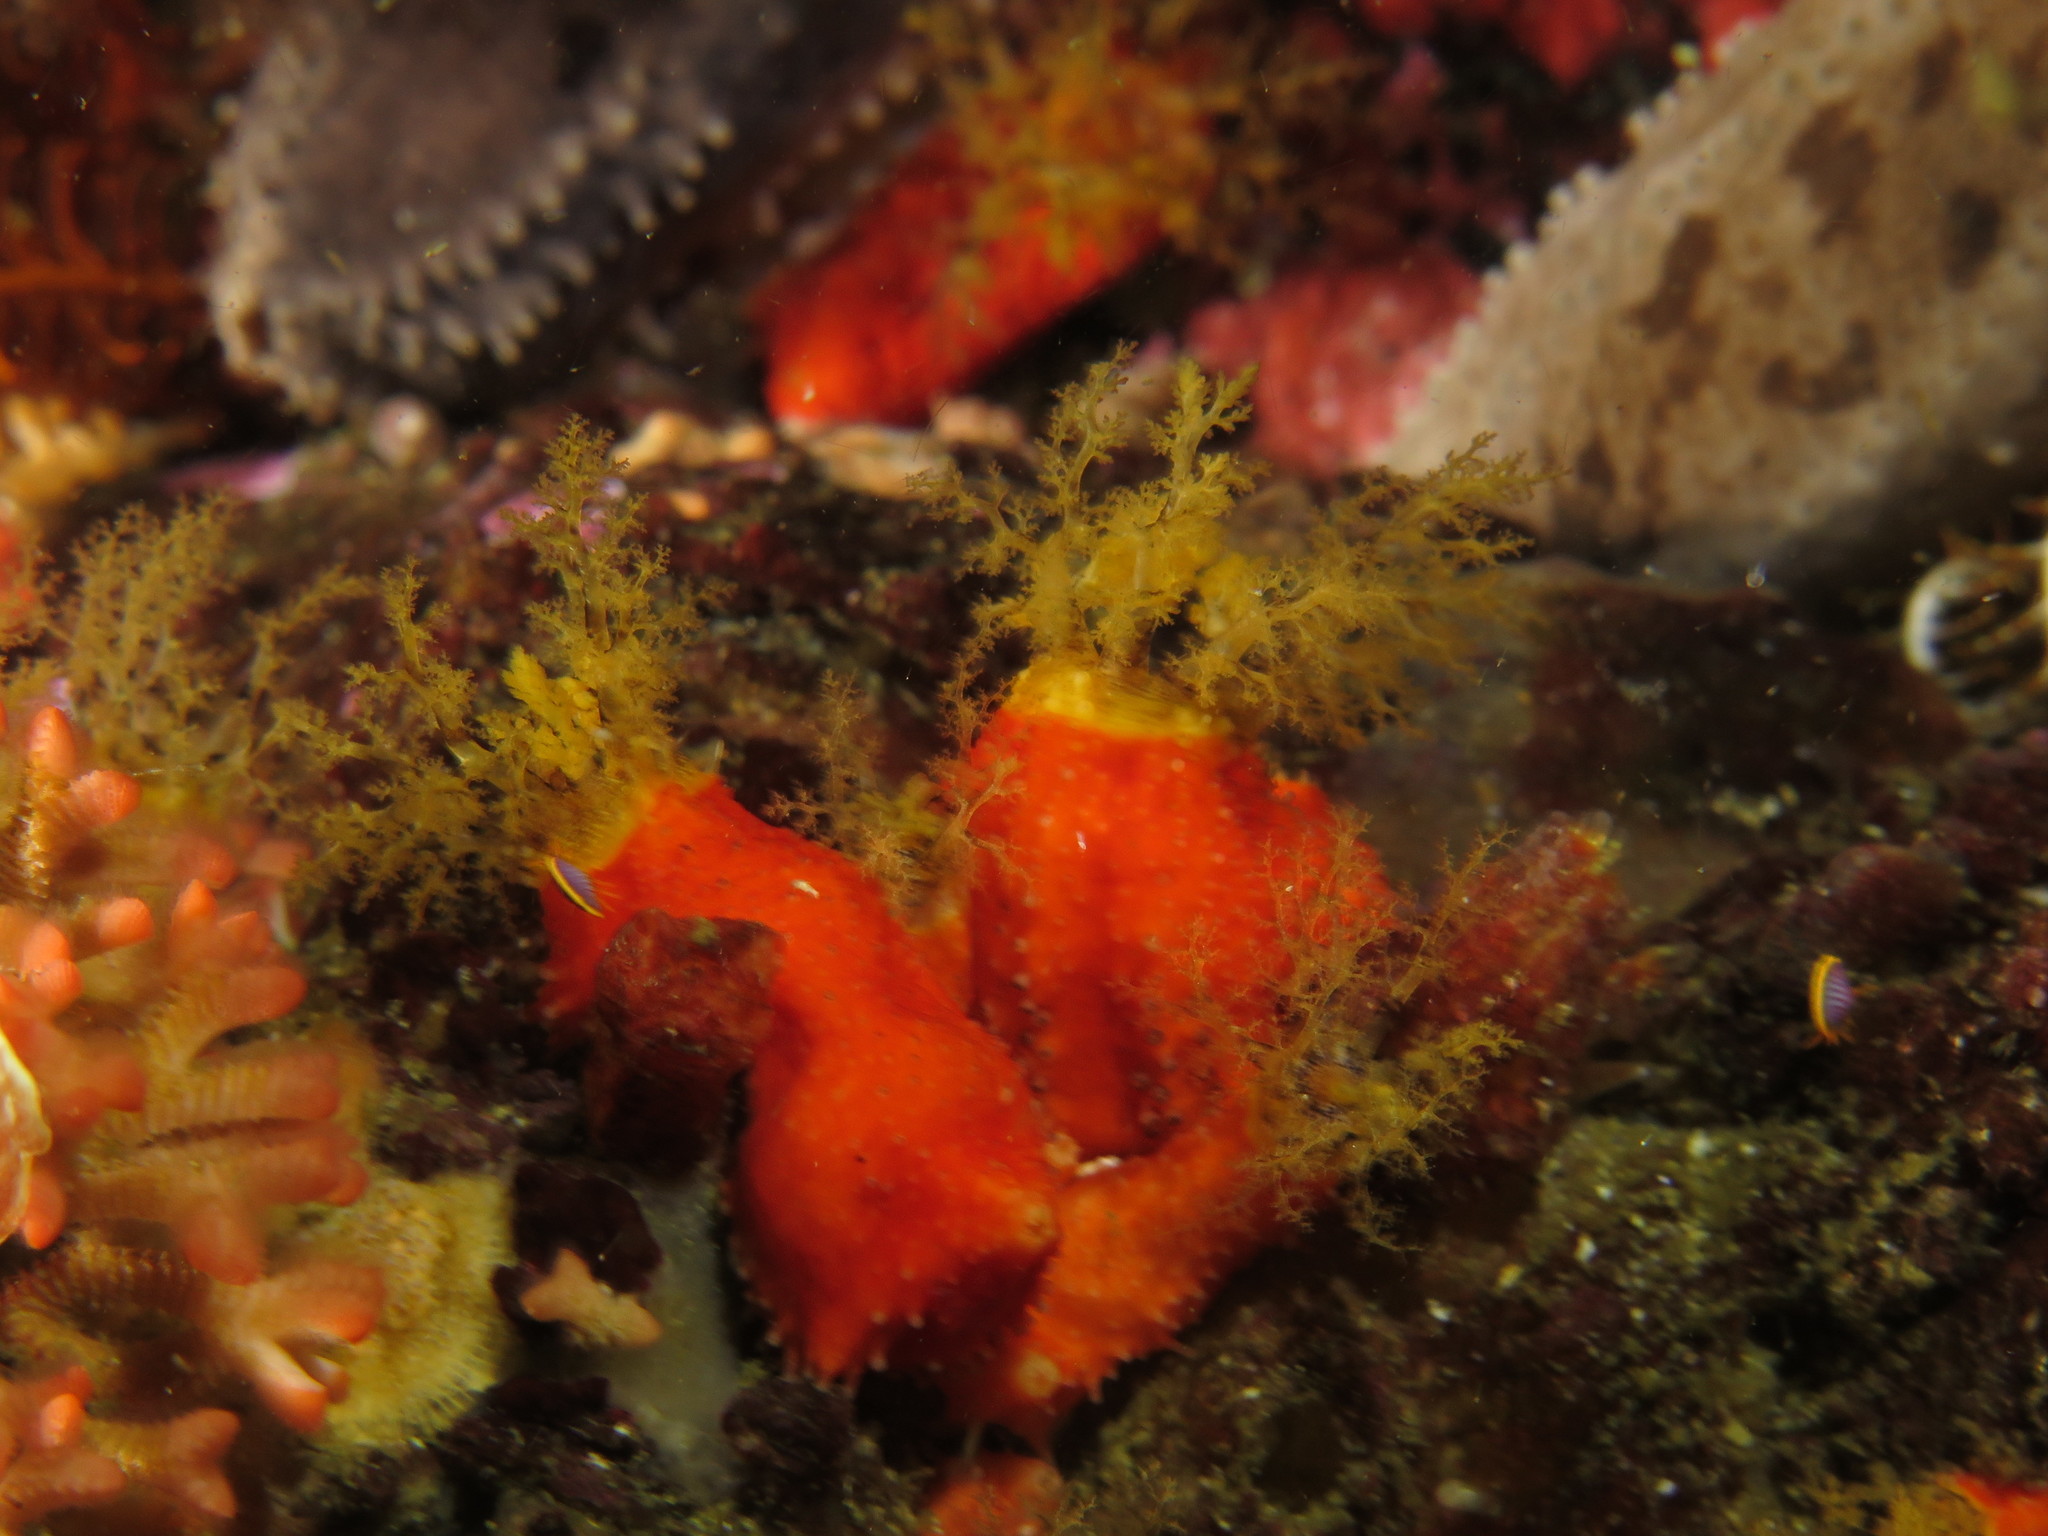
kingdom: Animalia
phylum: Echinodermata
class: Holothuroidea
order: Dendrochirotida
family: Cucumariidae
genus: Hemiocnus
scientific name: Hemiocnus insolens
